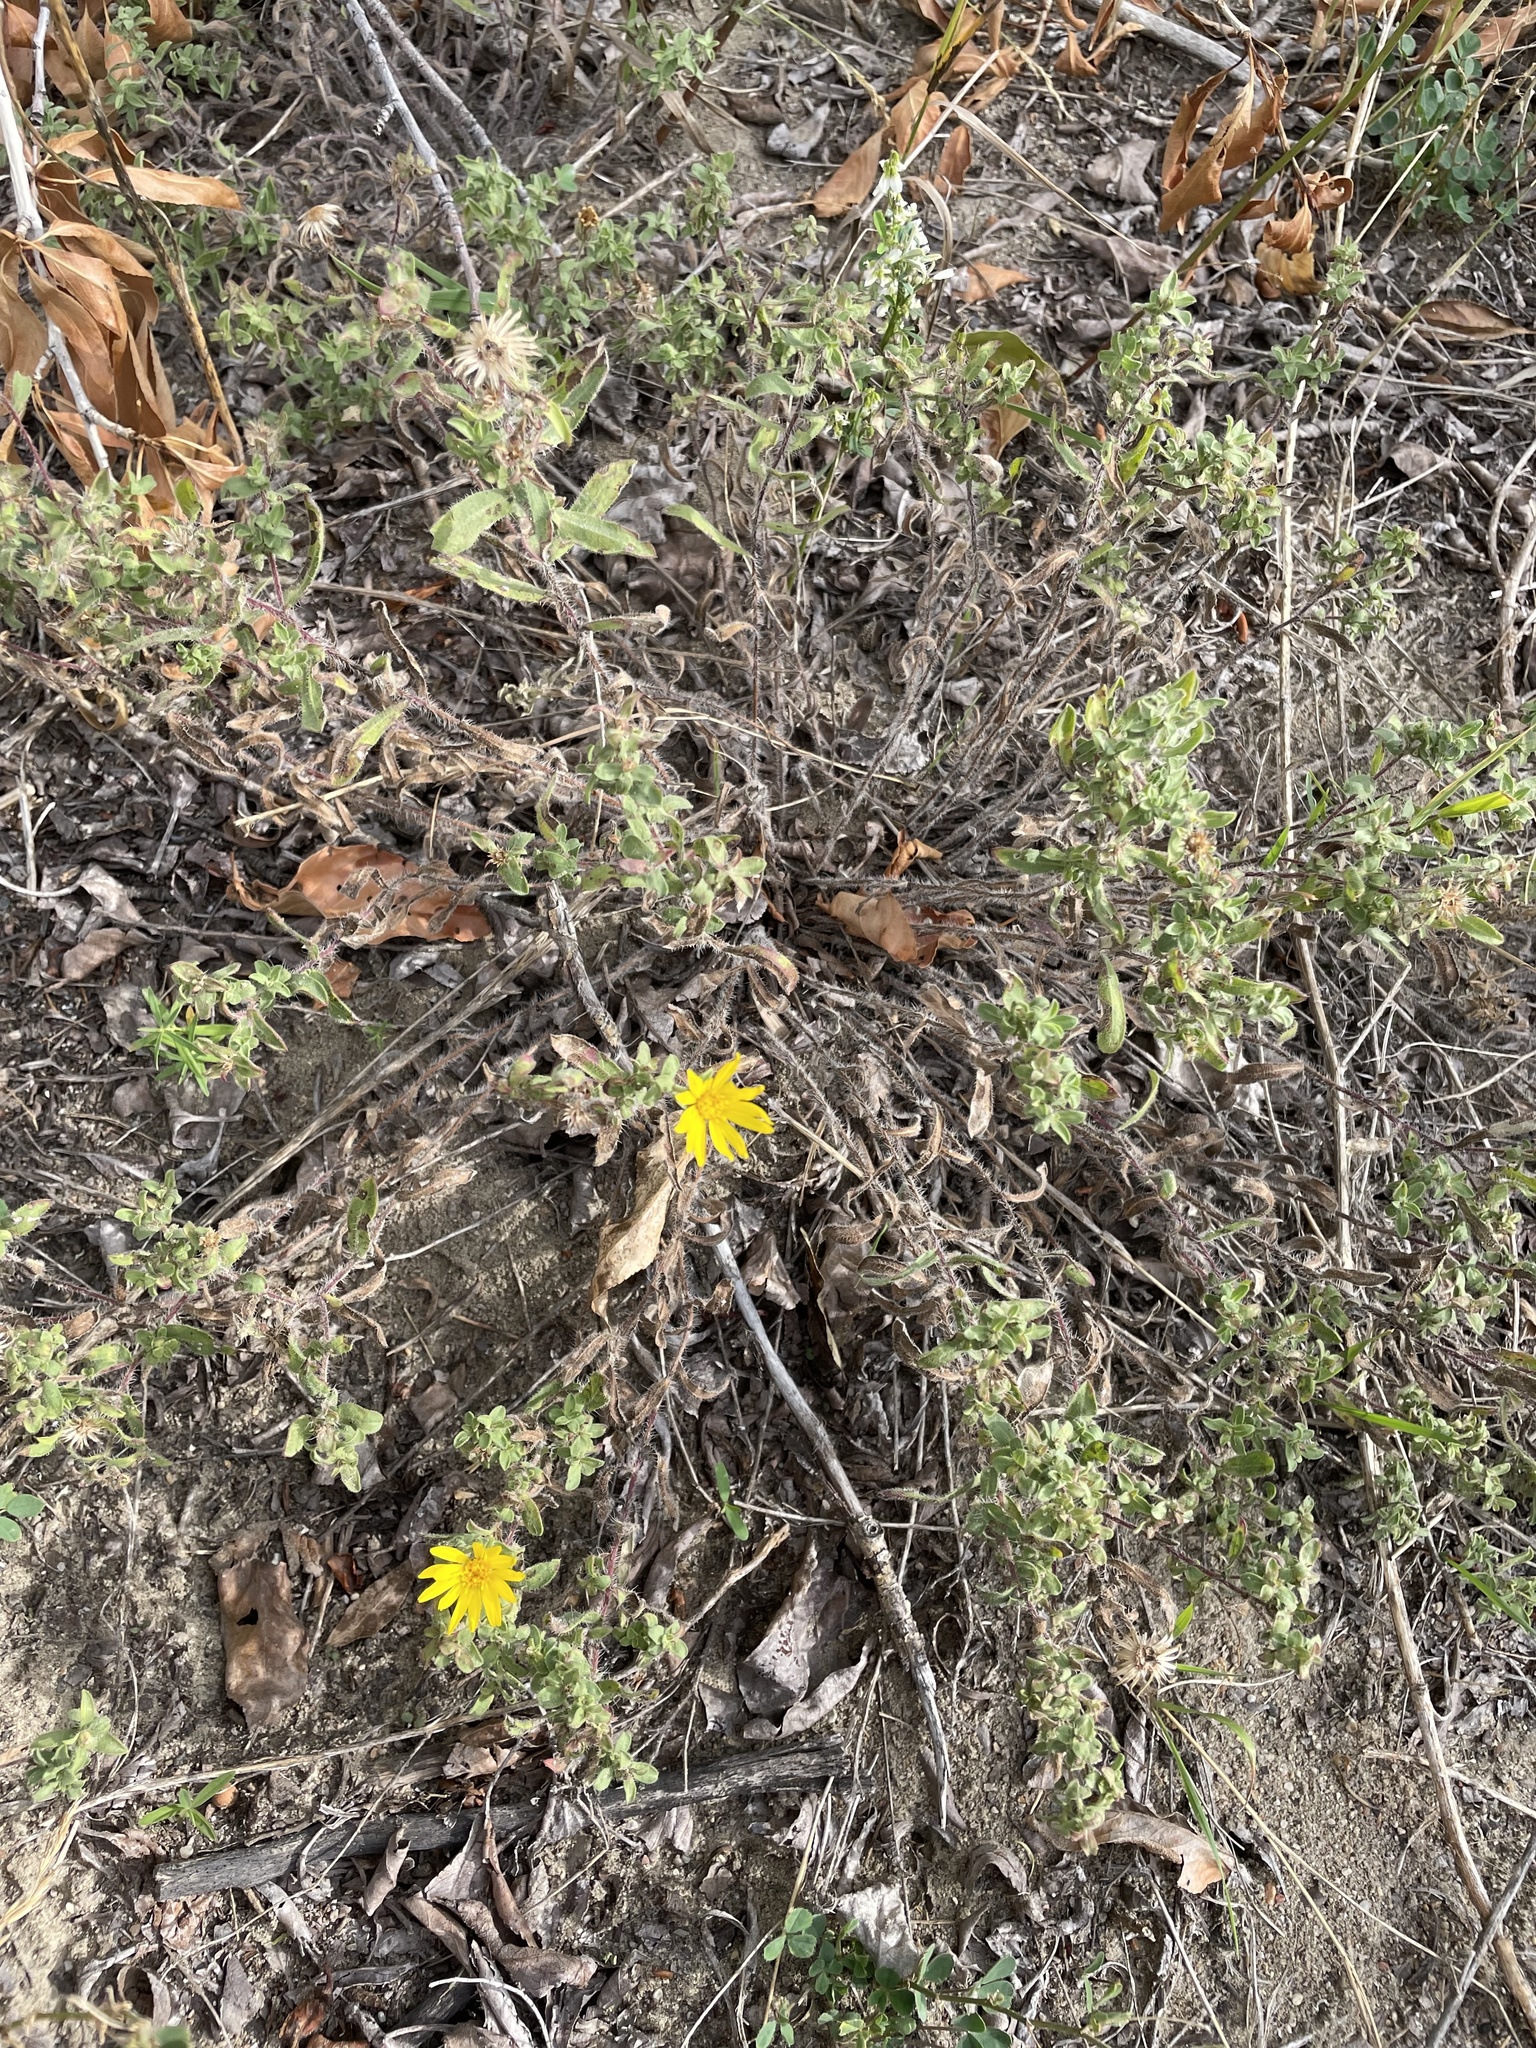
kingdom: Plantae
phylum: Tracheophyta
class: Magnoliopsida
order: Asterales
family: Asteraceae
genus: Heterotheca
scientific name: Heterotheca villosa
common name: Hairy false goldenaster
